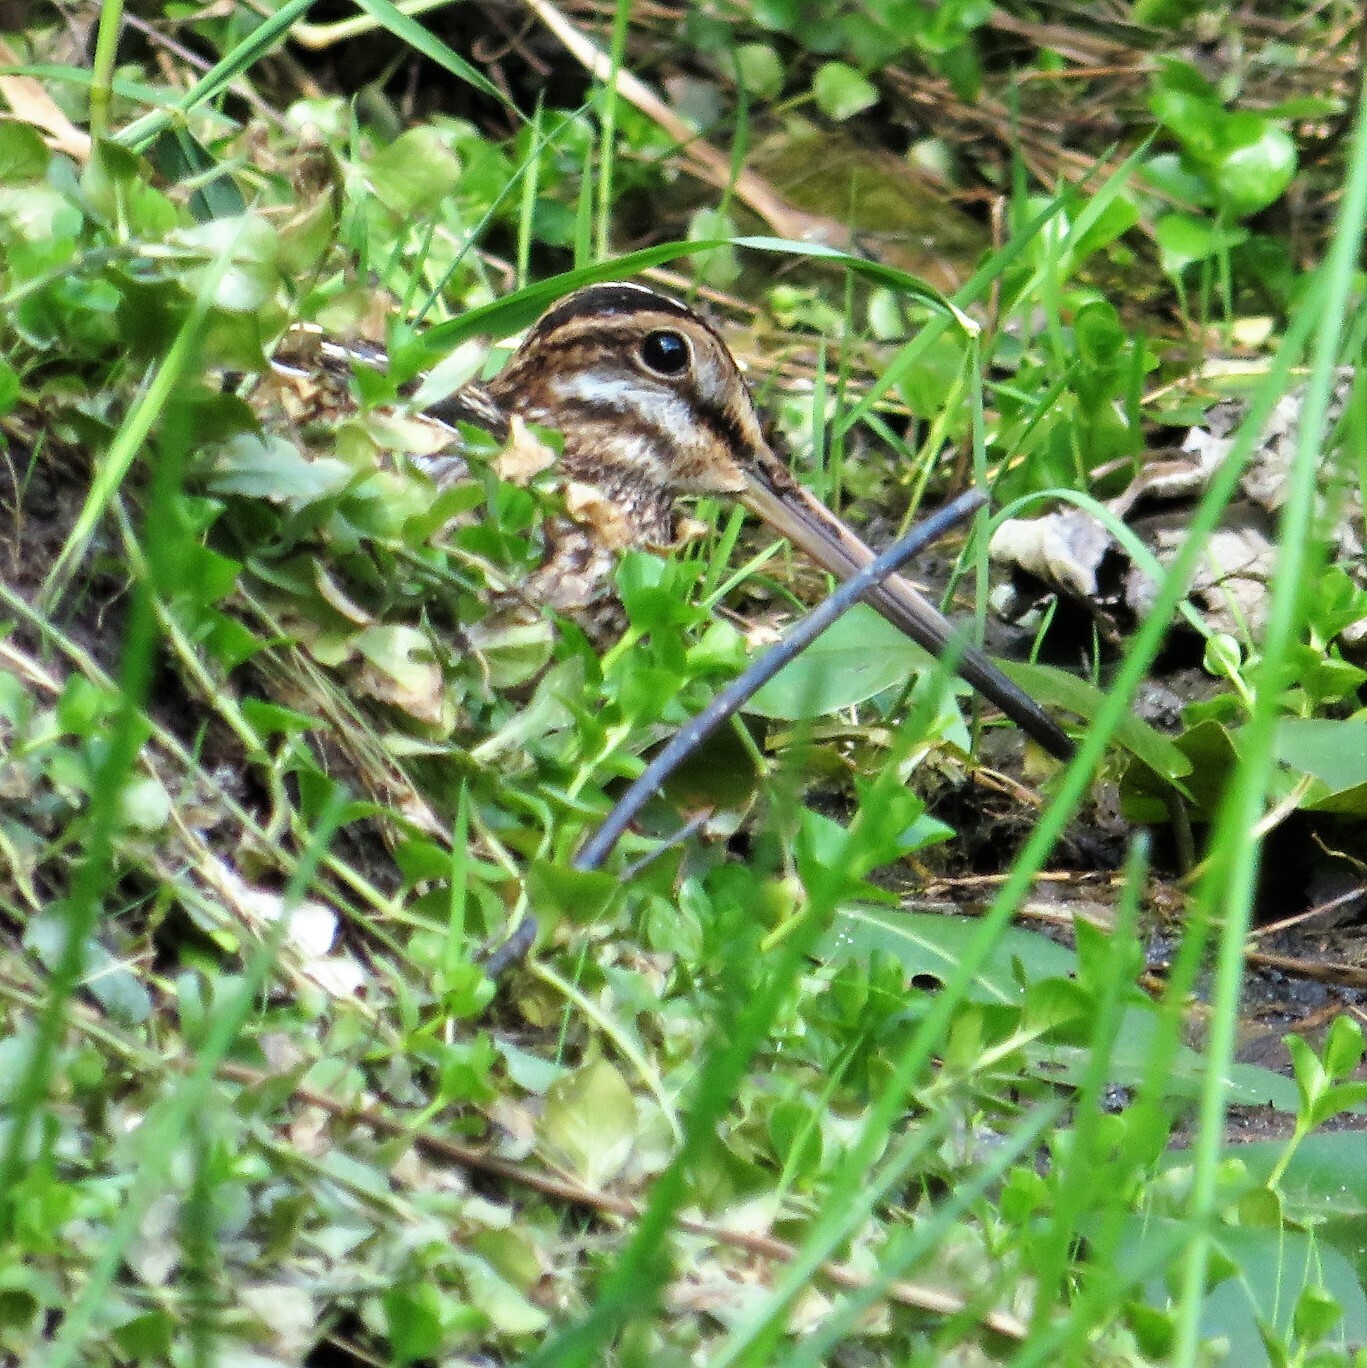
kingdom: Animalia
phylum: Chordata
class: Aves
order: Charadriiformes
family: Scolopacidae
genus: Gallinago
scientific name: Gallinago delicata
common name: Wilson's snipe
